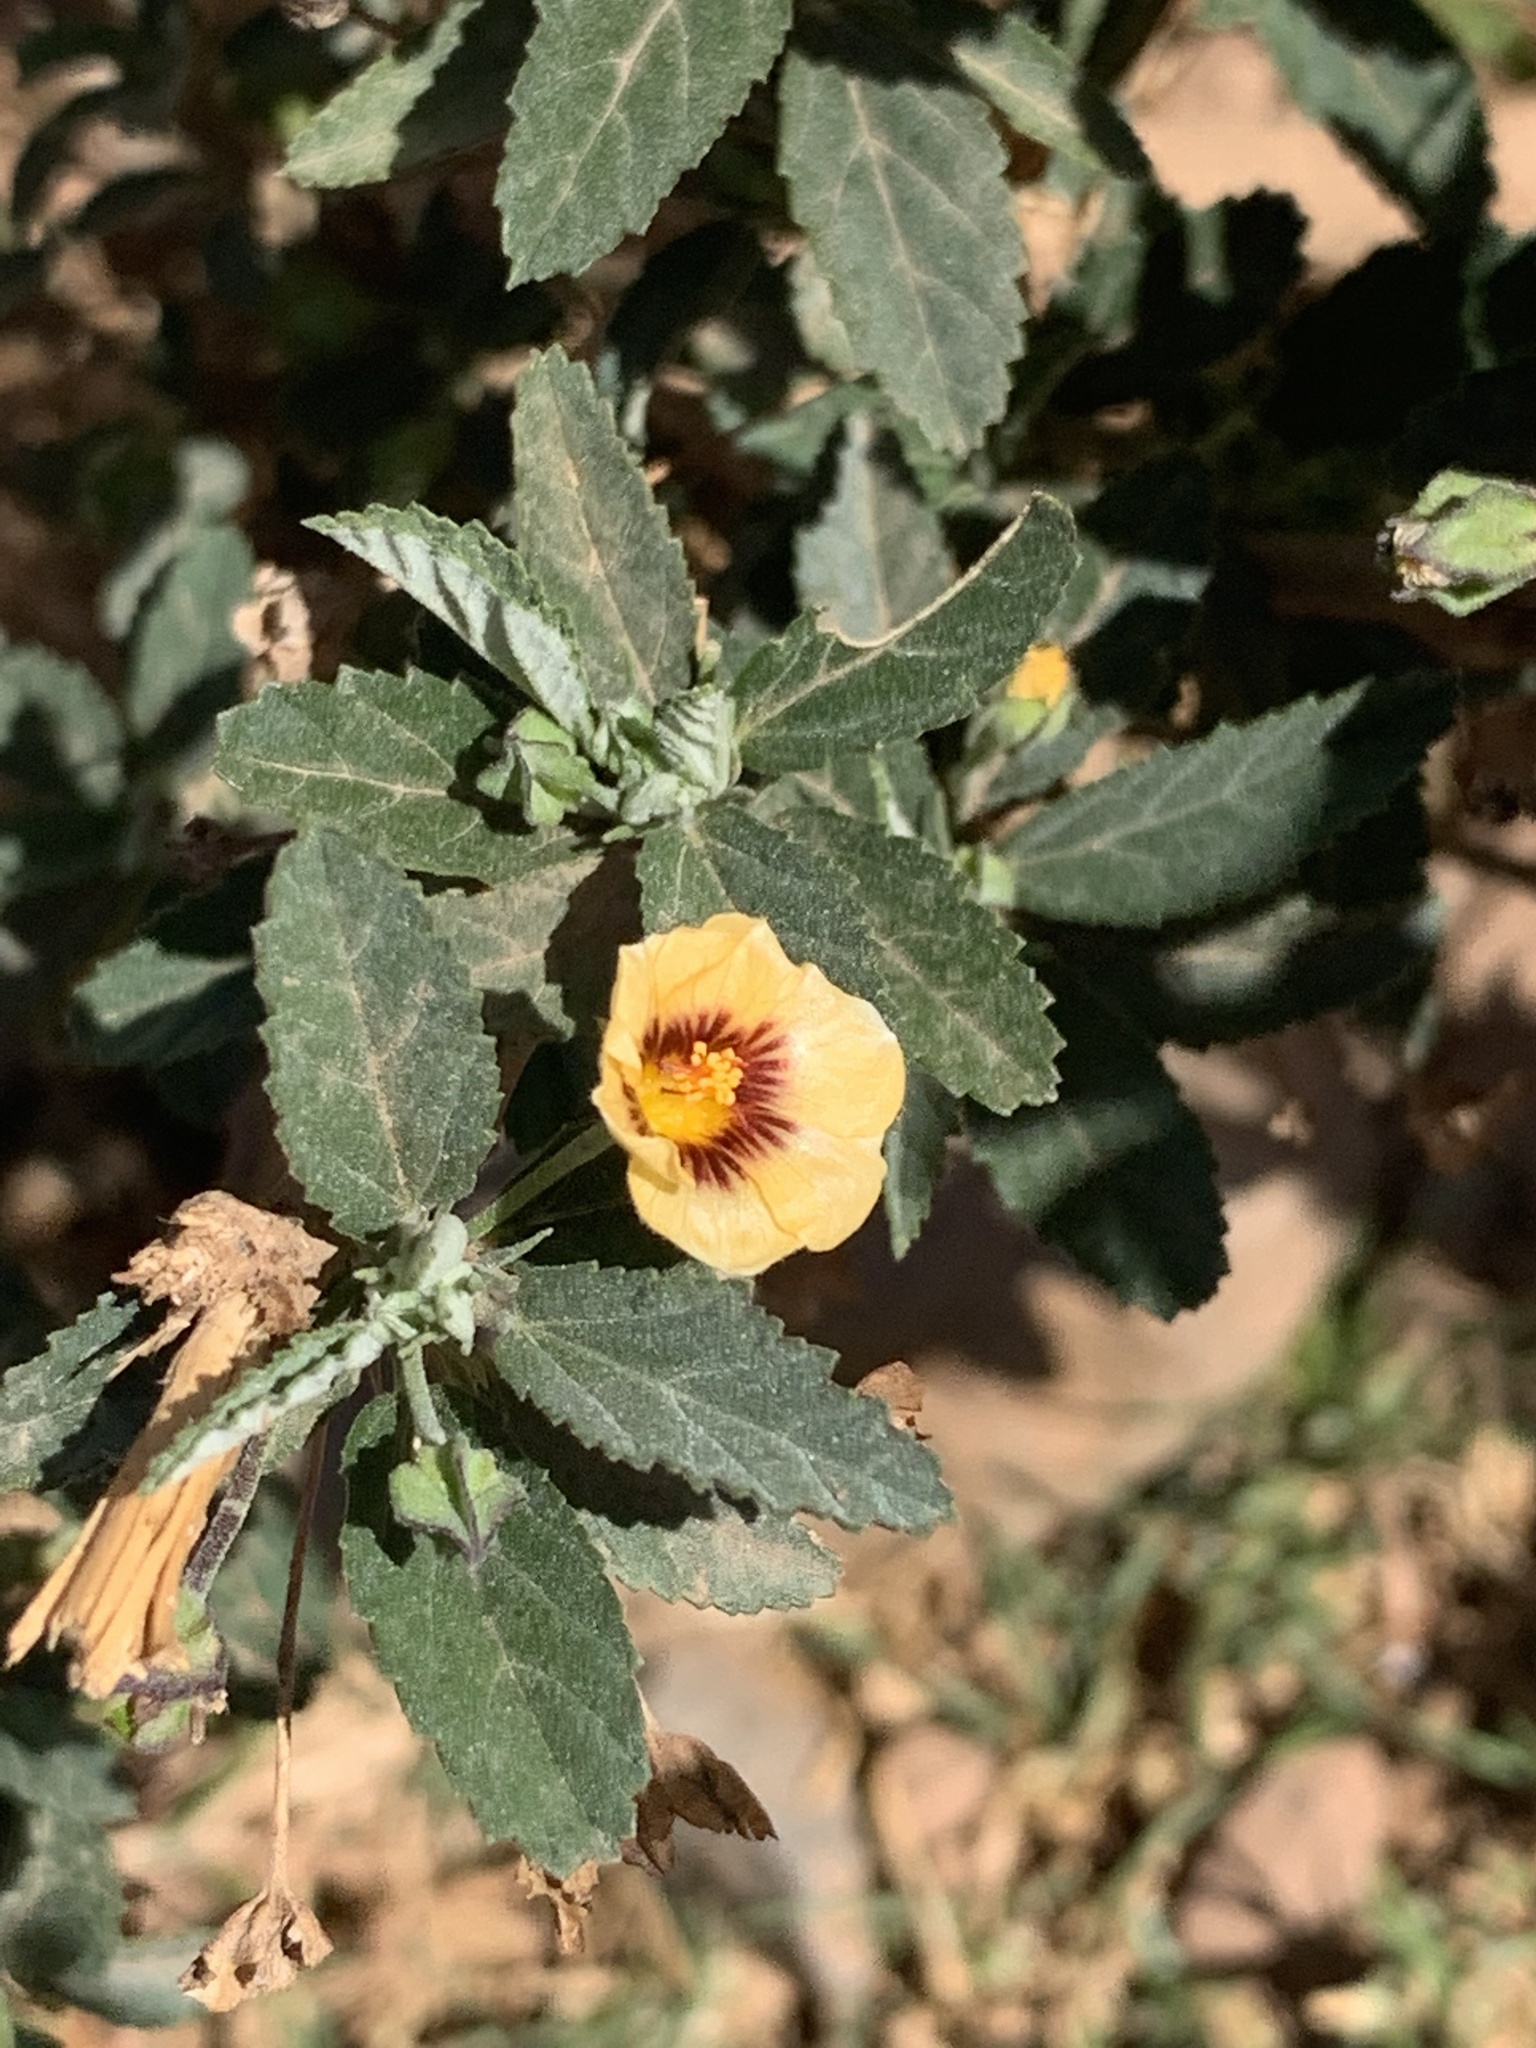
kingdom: Plantae
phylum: Tracheophyta
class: Magnoliopsida
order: Malvales
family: Malvaceae
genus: Sida
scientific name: Sida poeppigiana
